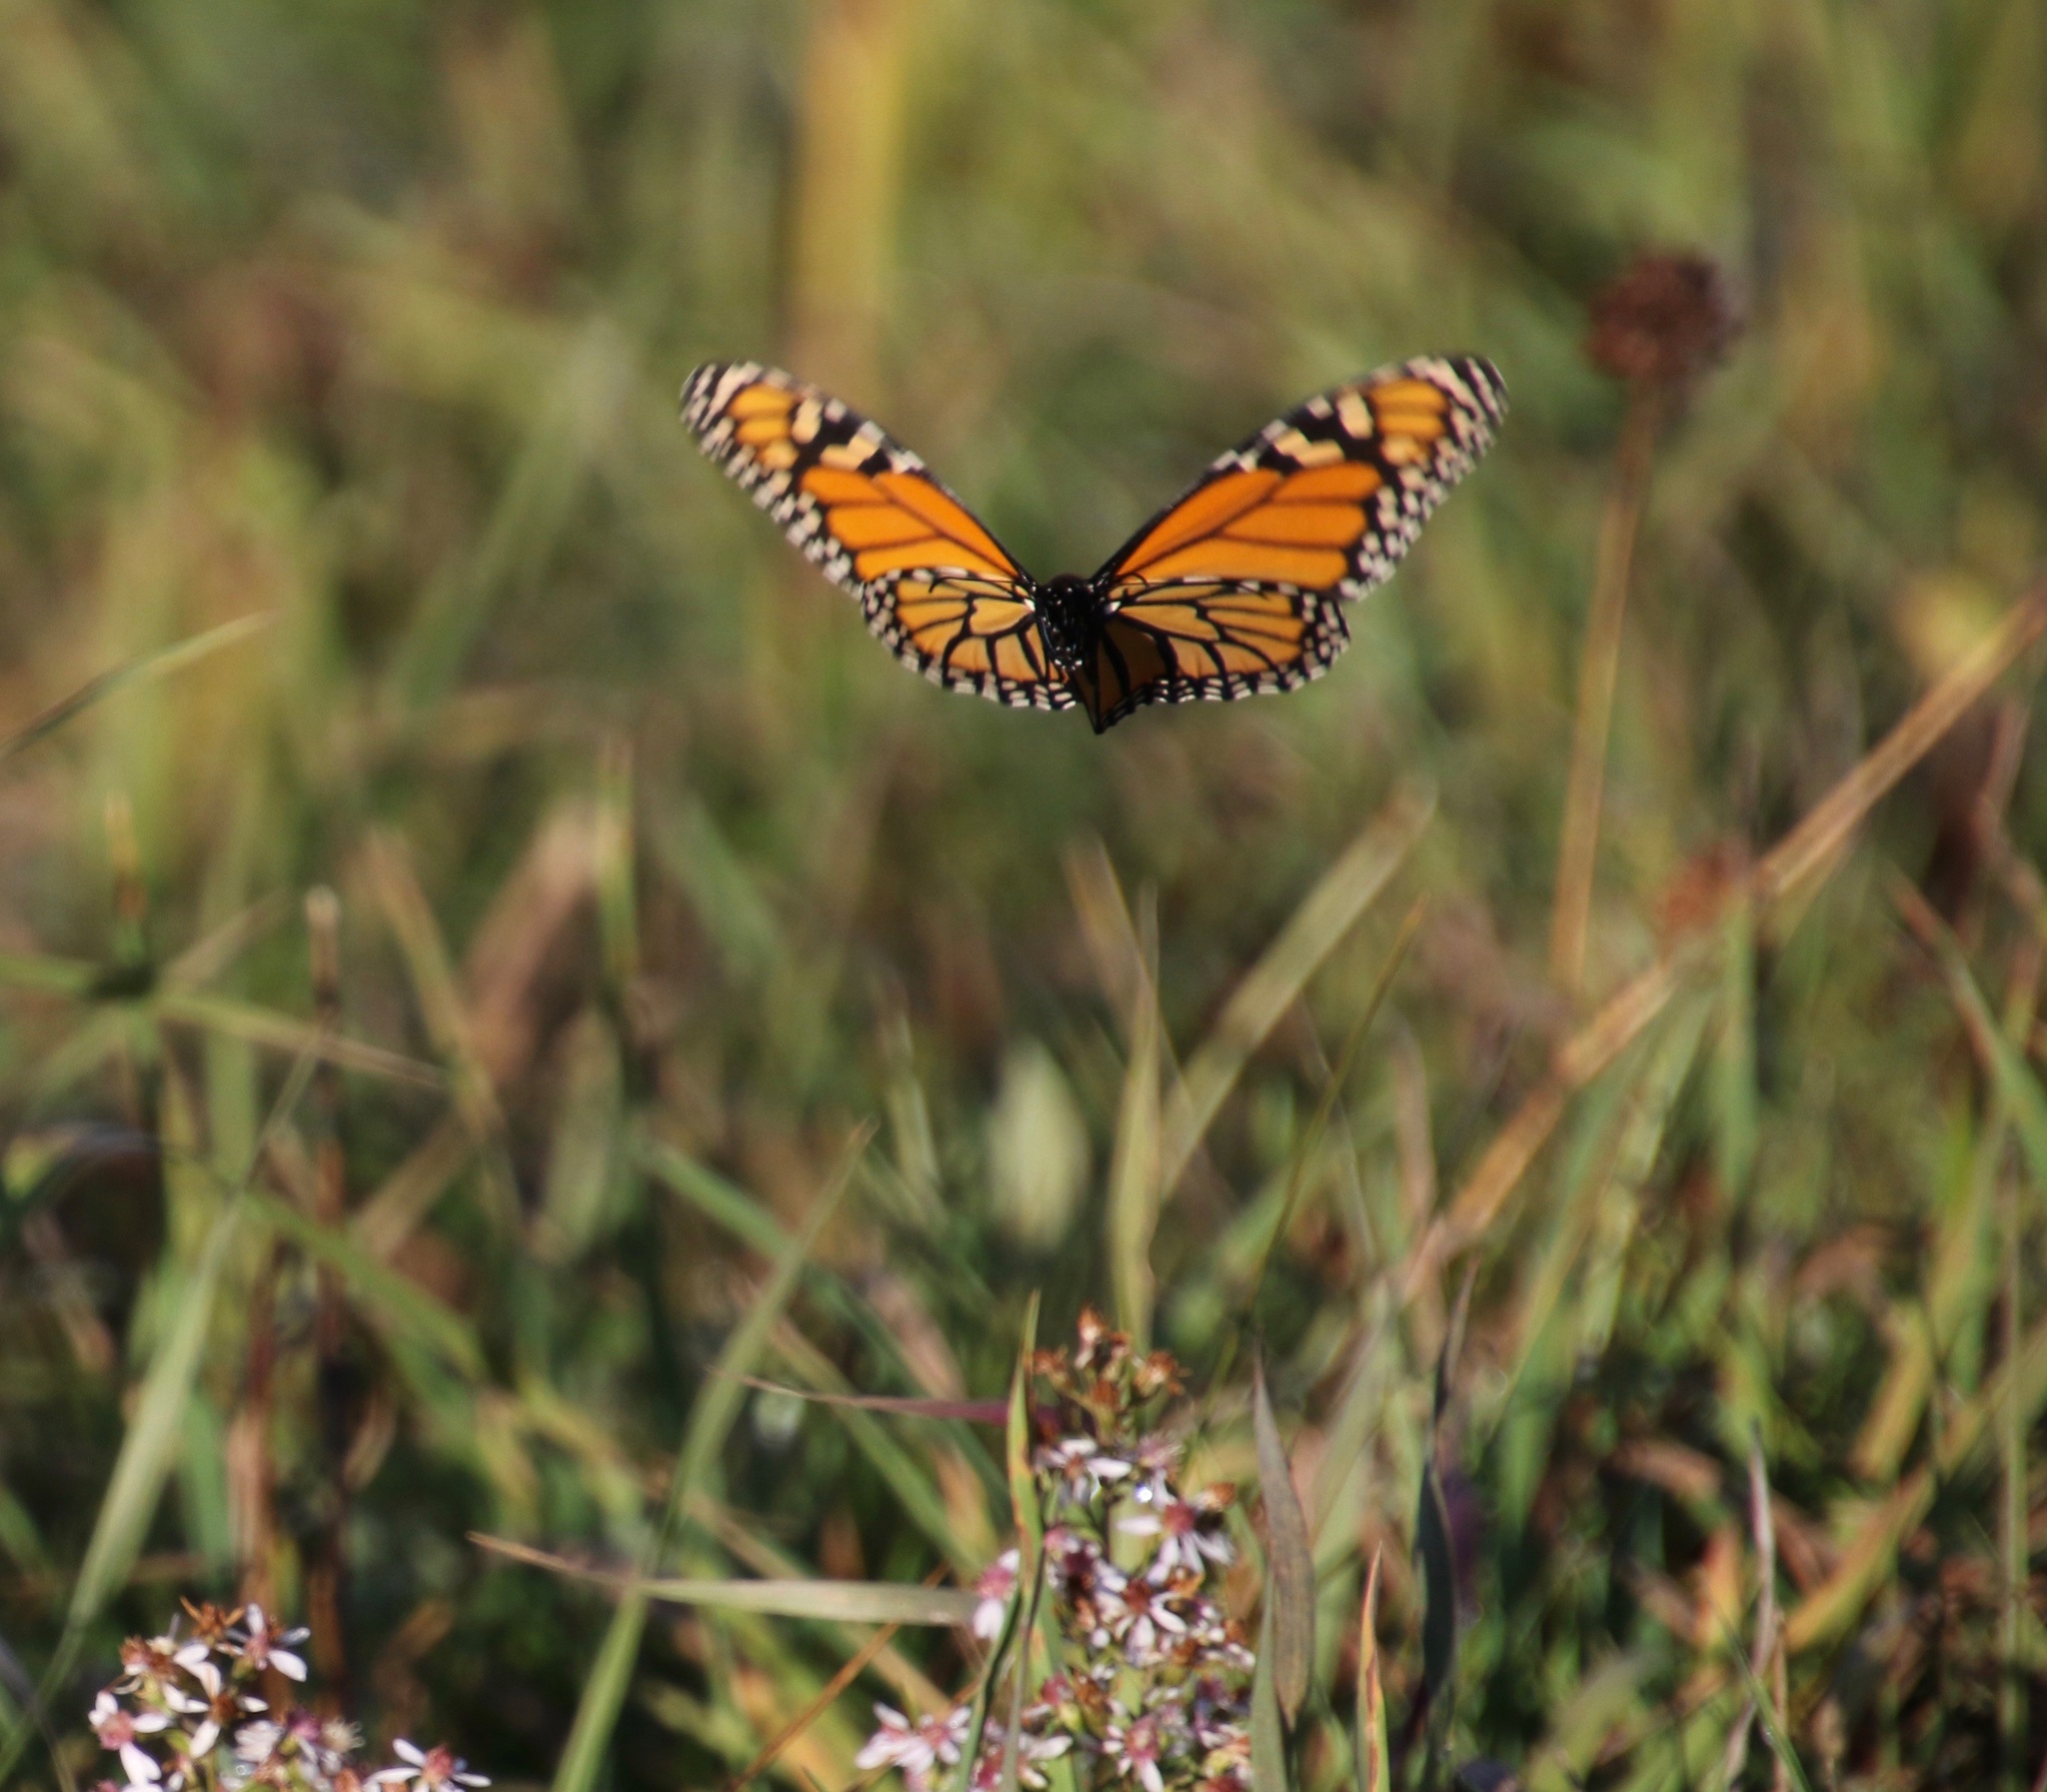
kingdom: Animalia
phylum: Arthropoda
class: Insecta
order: Lepidoptera
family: Nymphalidae
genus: Danaus
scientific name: Danaus plexippus
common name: Monarch
